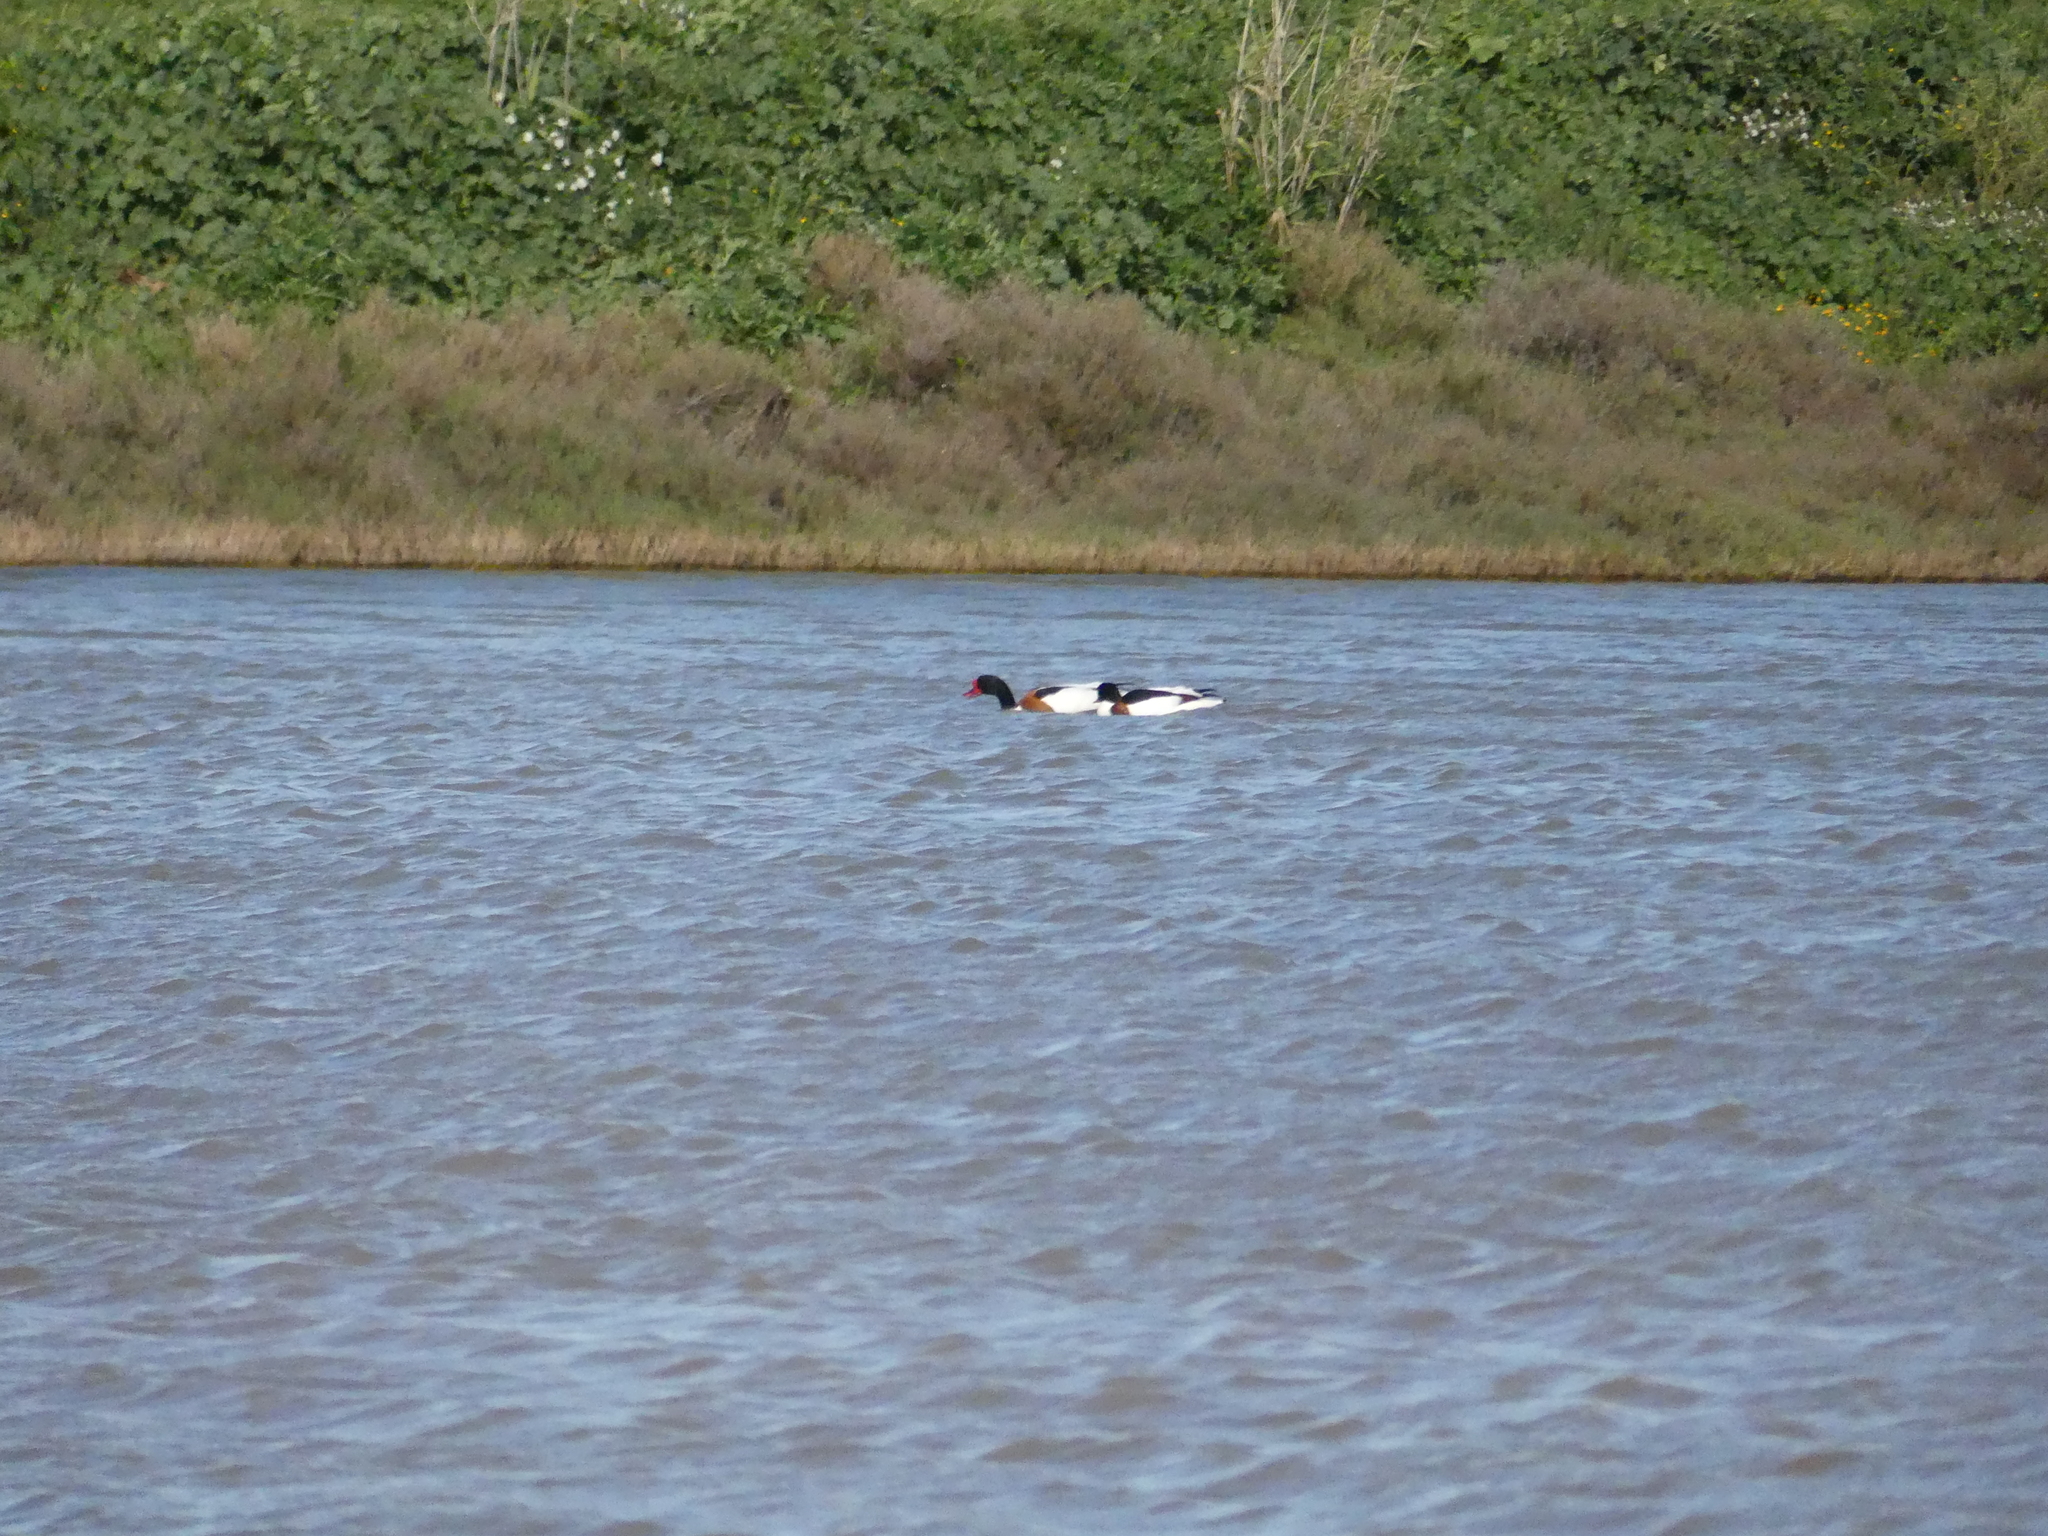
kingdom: Animalia
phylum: Chordata
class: Aves
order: Anseriformes
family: Anatidae
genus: Tadorna
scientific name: Tadorna tadorna
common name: Common shelduck
